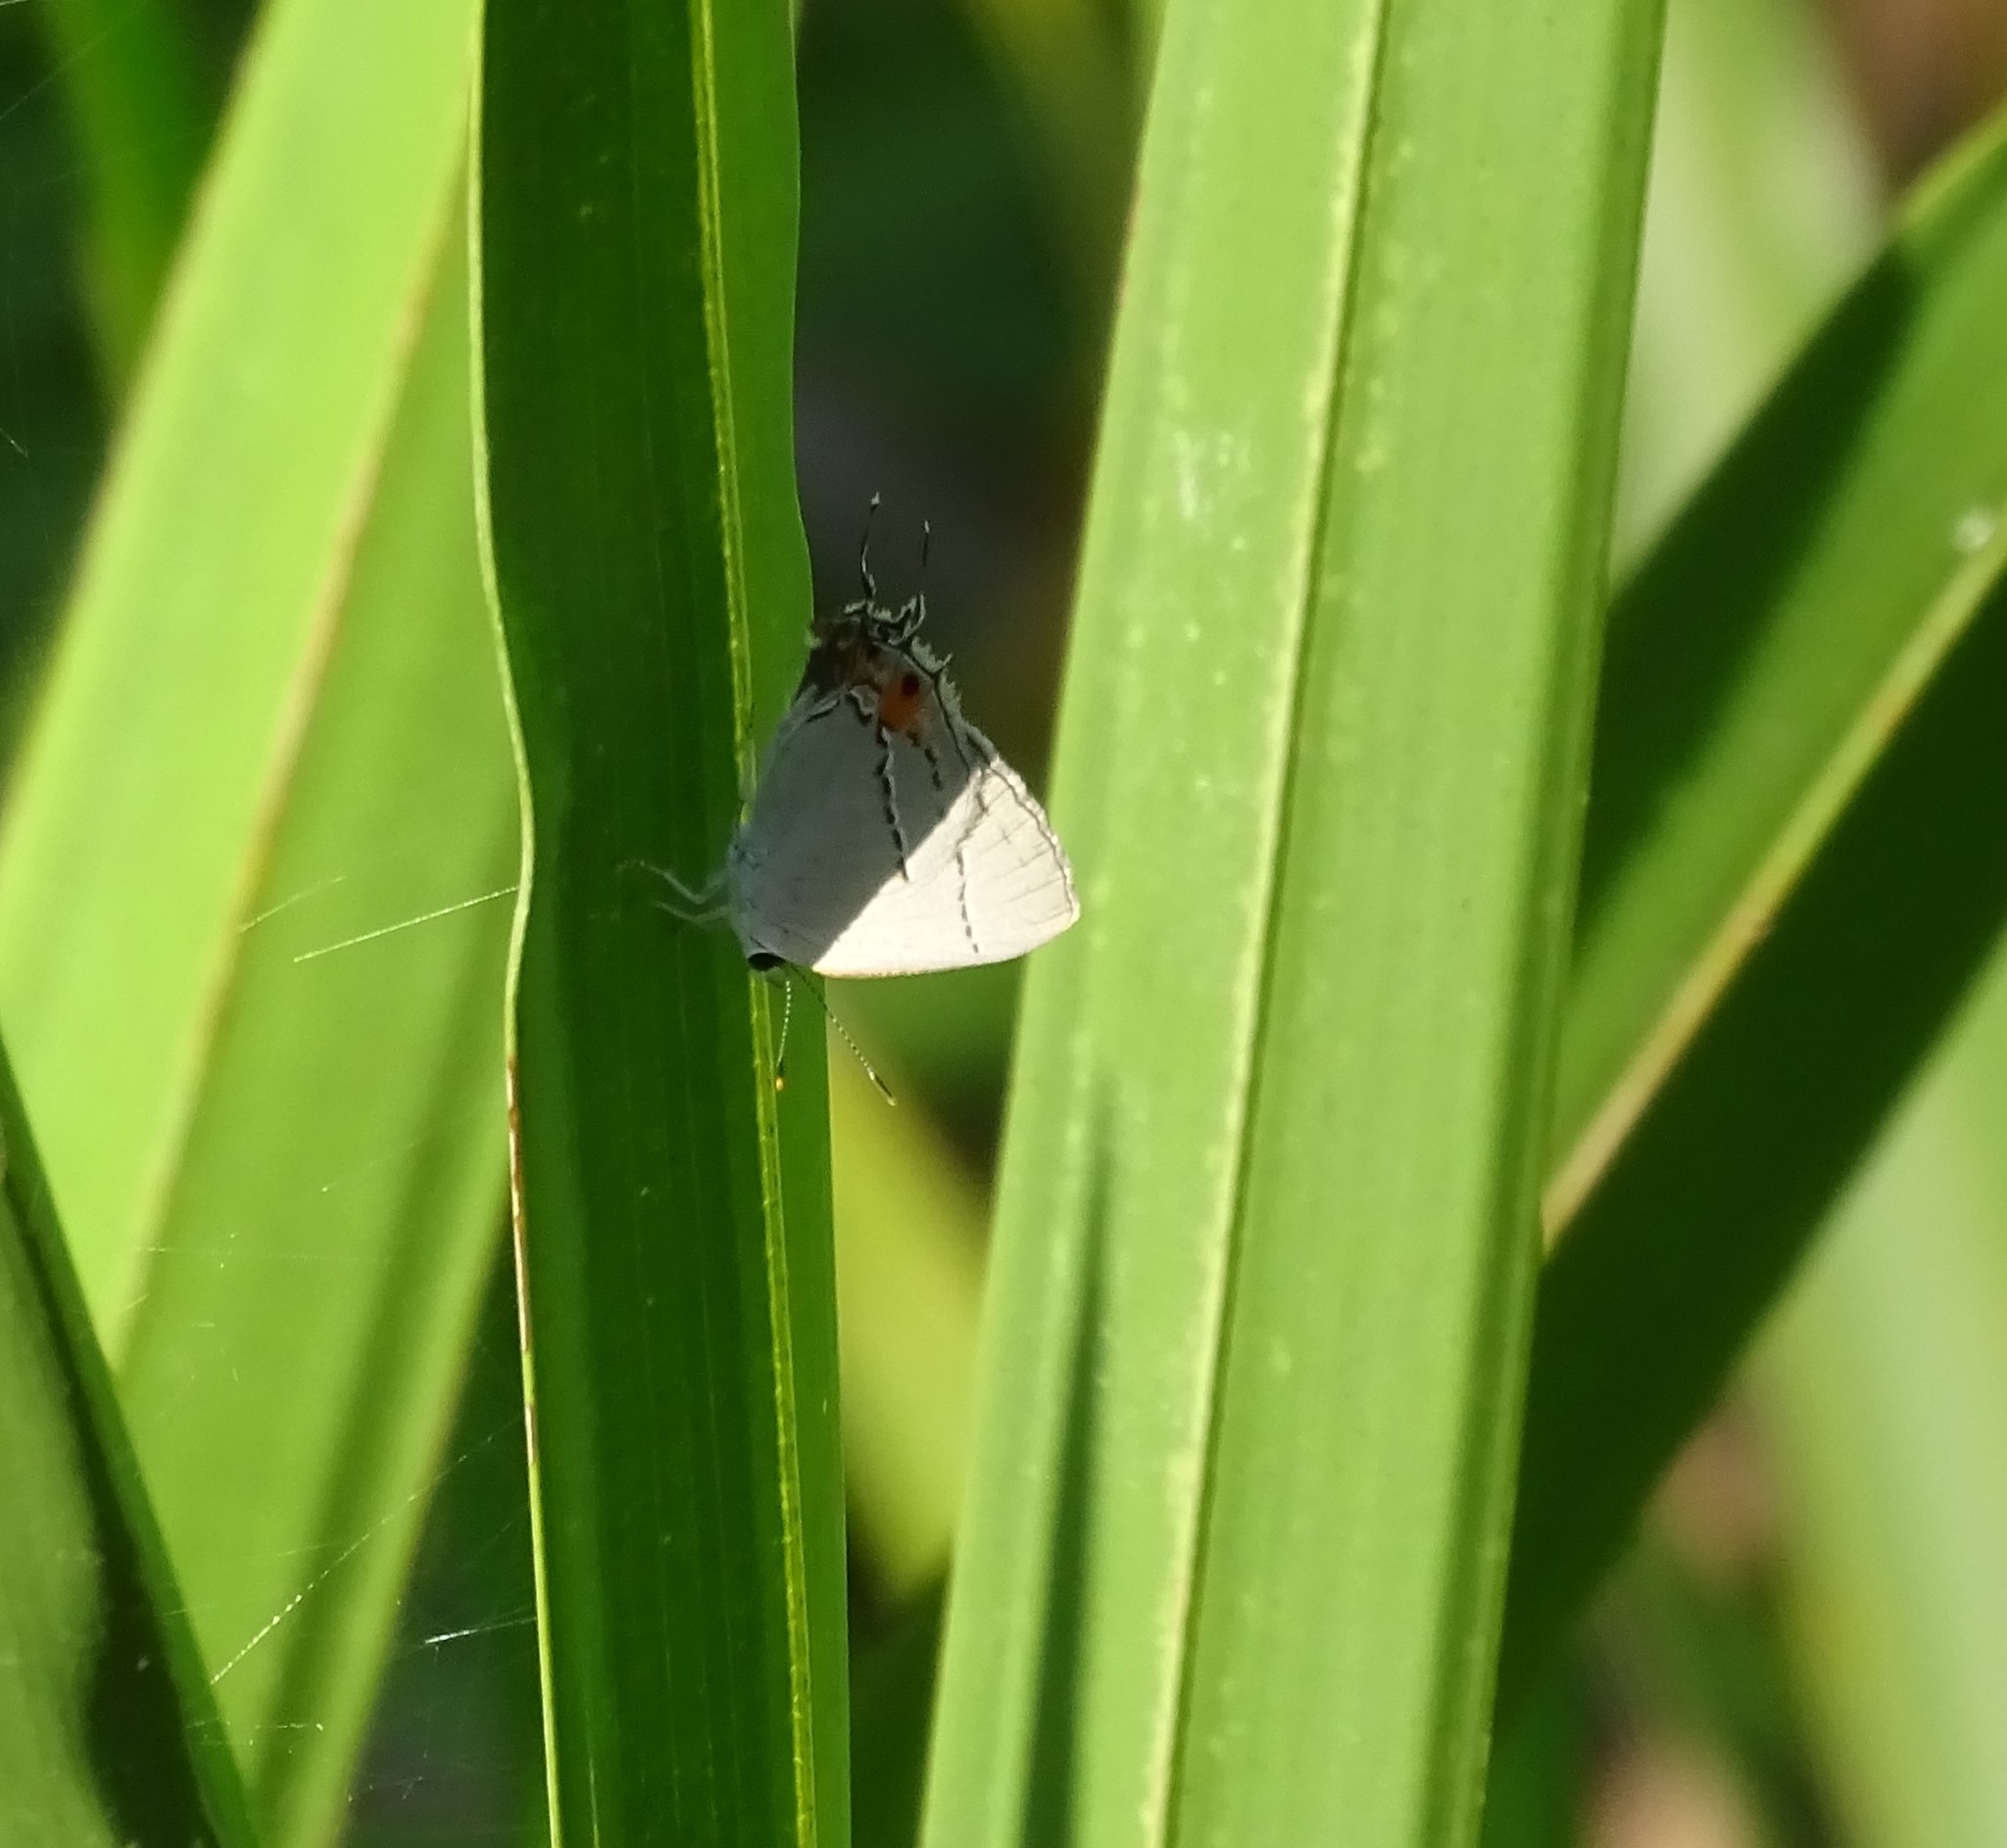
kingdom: Animalia
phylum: Arthropoda
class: Insecta
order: Lepidoptera
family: Lycaenidae
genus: Strymon
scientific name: Strymon melinus
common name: Gray hairstreak
